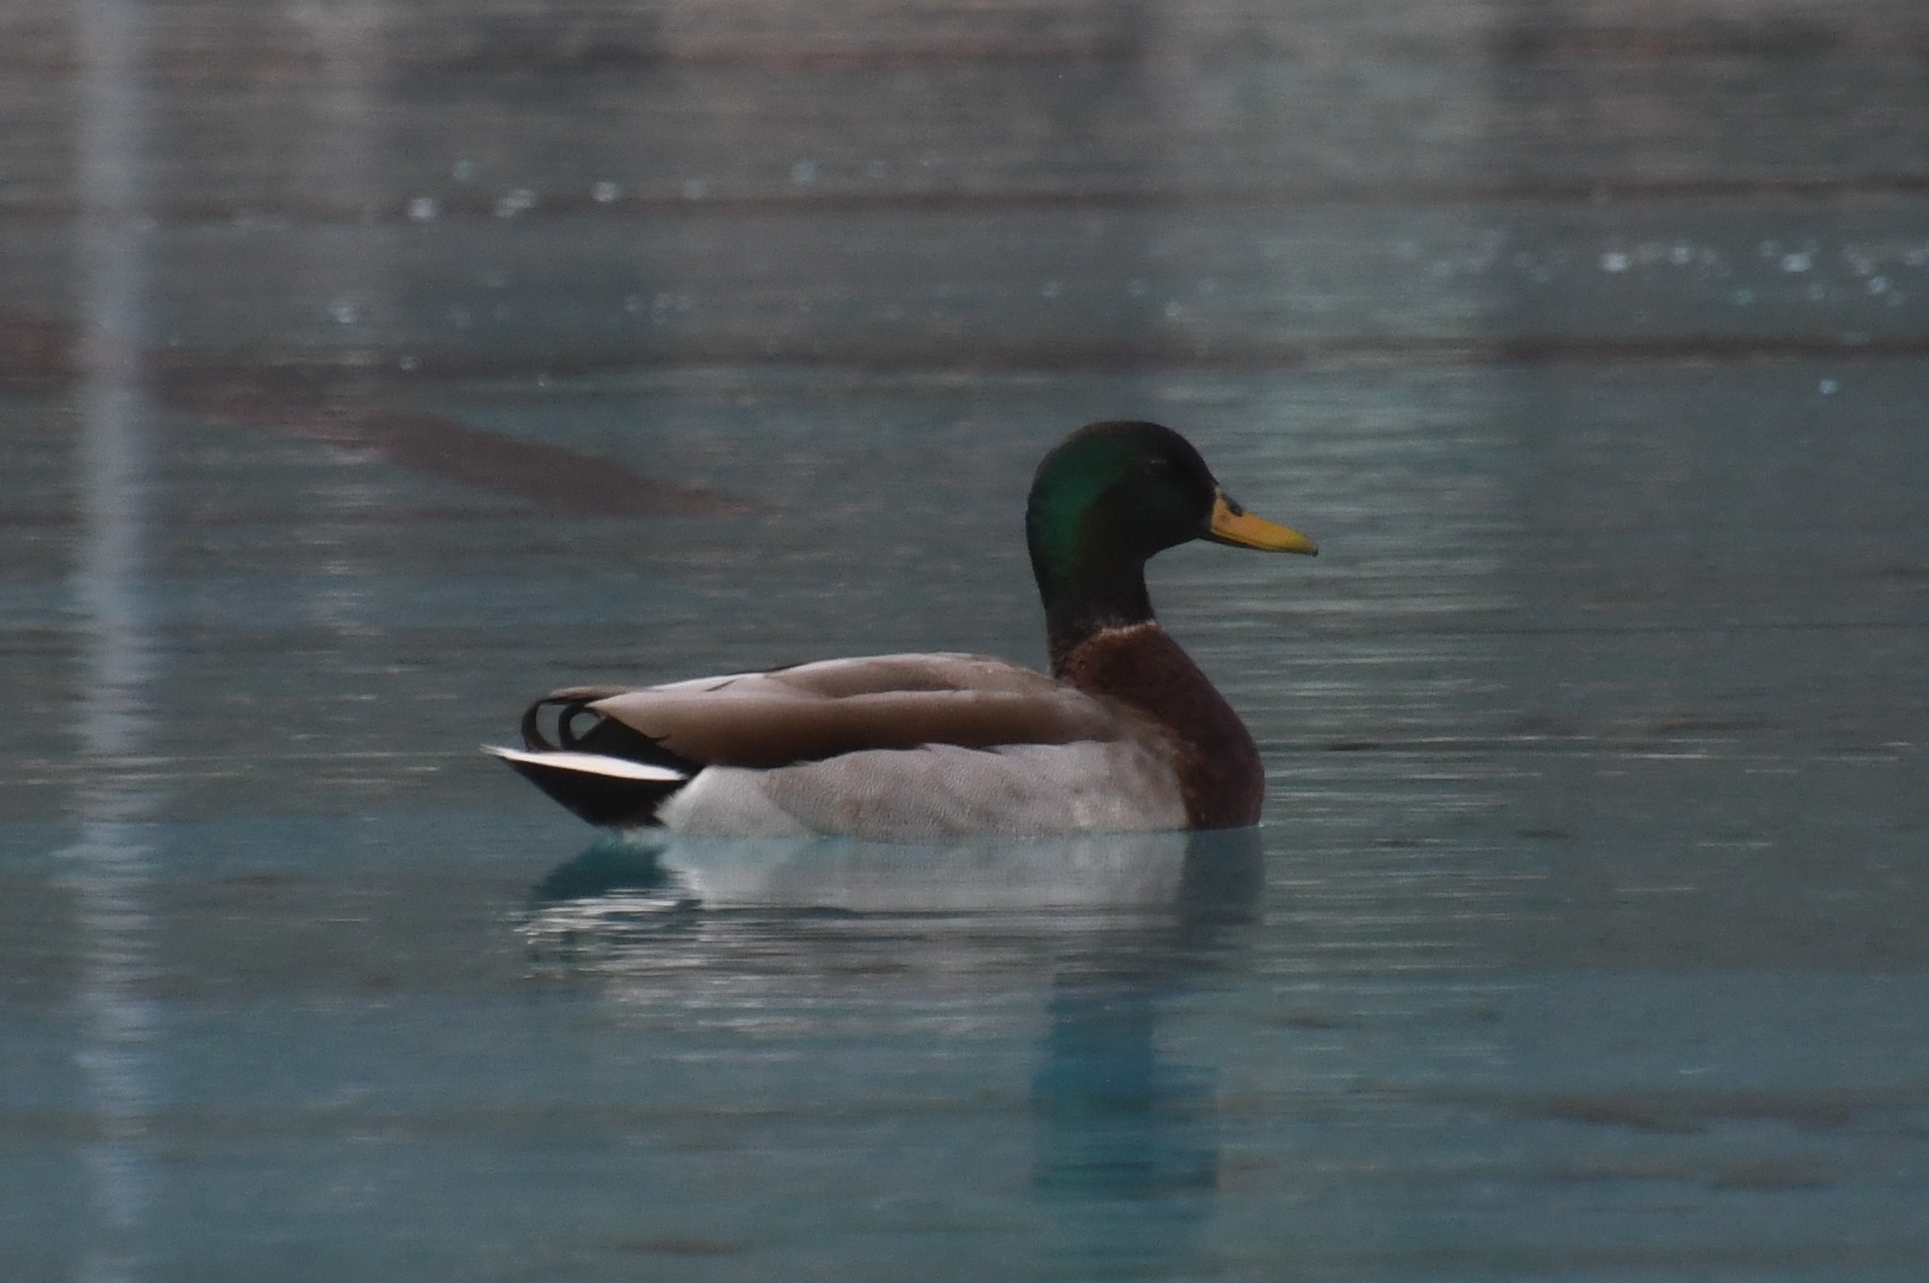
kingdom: Animalia
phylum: Chordata
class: Aves
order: Anseriformes
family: Anatidae
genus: Anas
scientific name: Anas platyrhynchos
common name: Mallard
